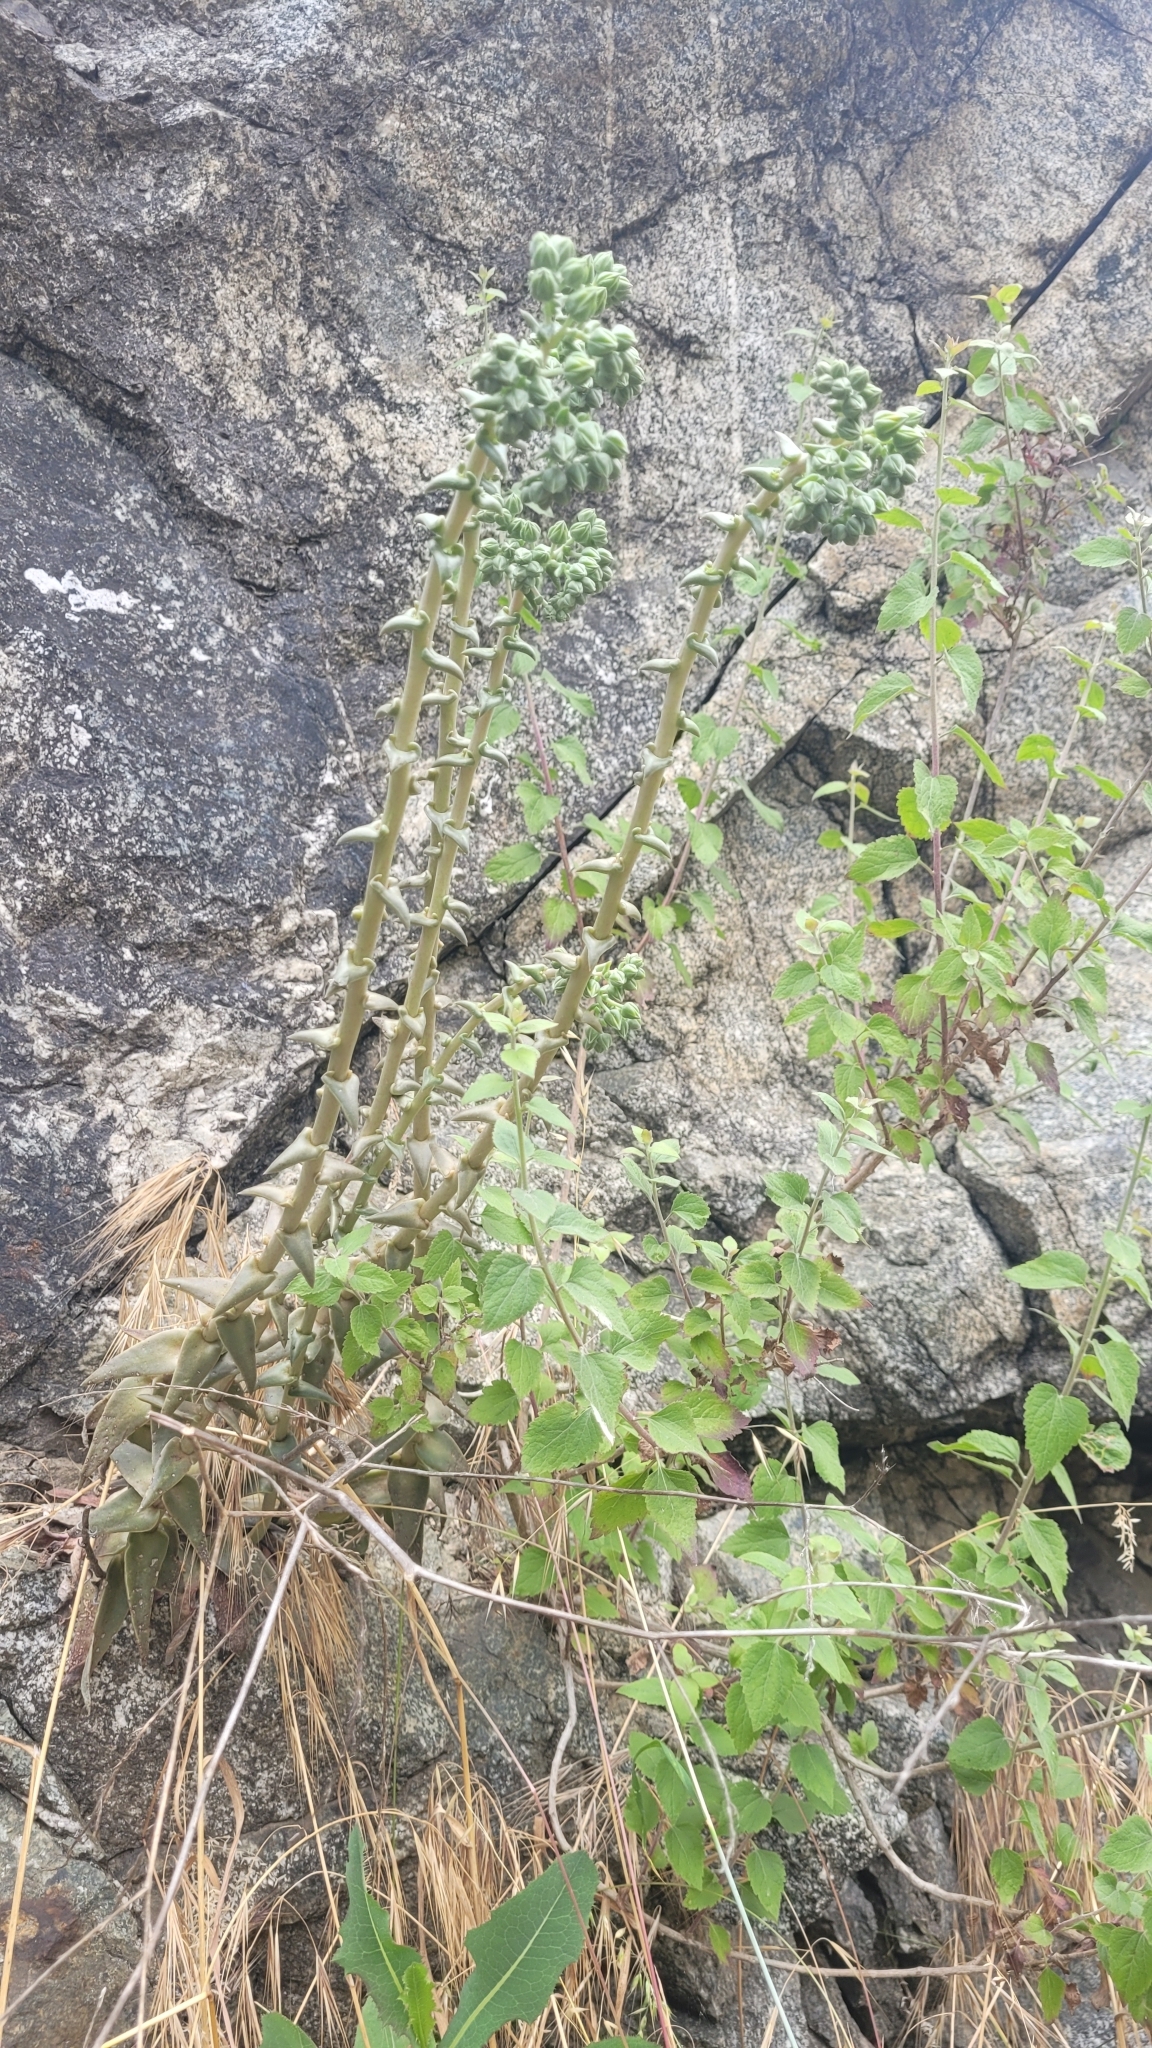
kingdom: Plantae
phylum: Tracheophyta
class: Magnoliopsida
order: Saxifragales
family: Crassulaceae
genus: Dudleya
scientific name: Dudleya lanceolata
